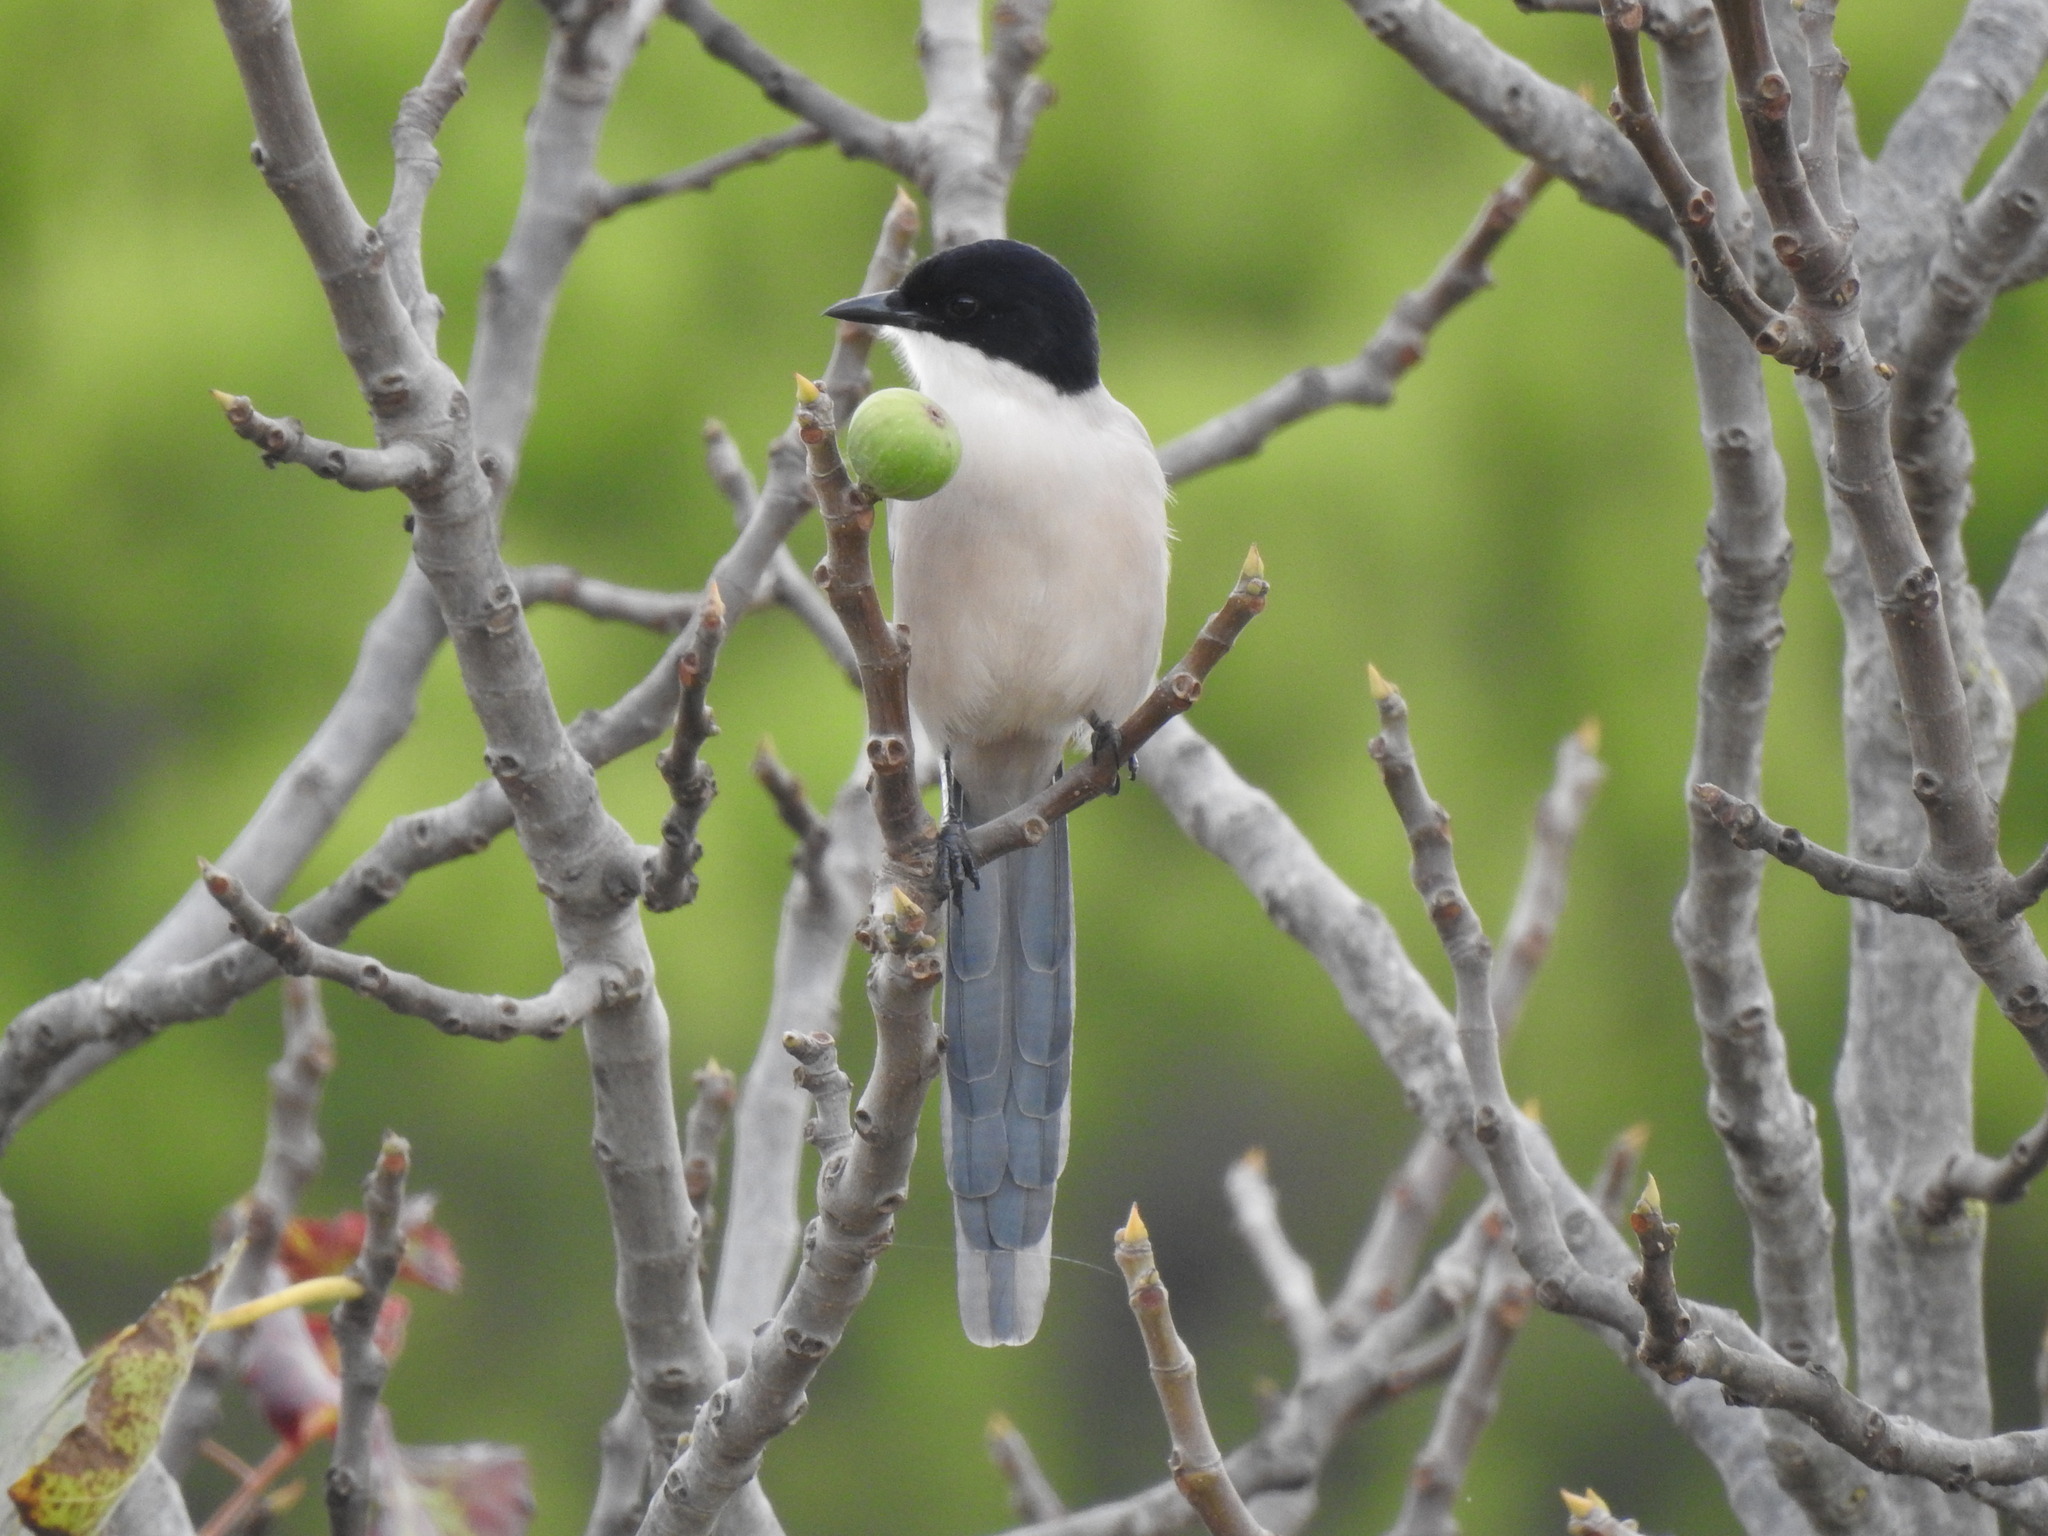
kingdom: Animalia
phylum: Chordata
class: Aves
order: Passeriformes
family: Corvidae
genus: Cyanopica
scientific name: Cyanopica cooki
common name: Iberian magpie
